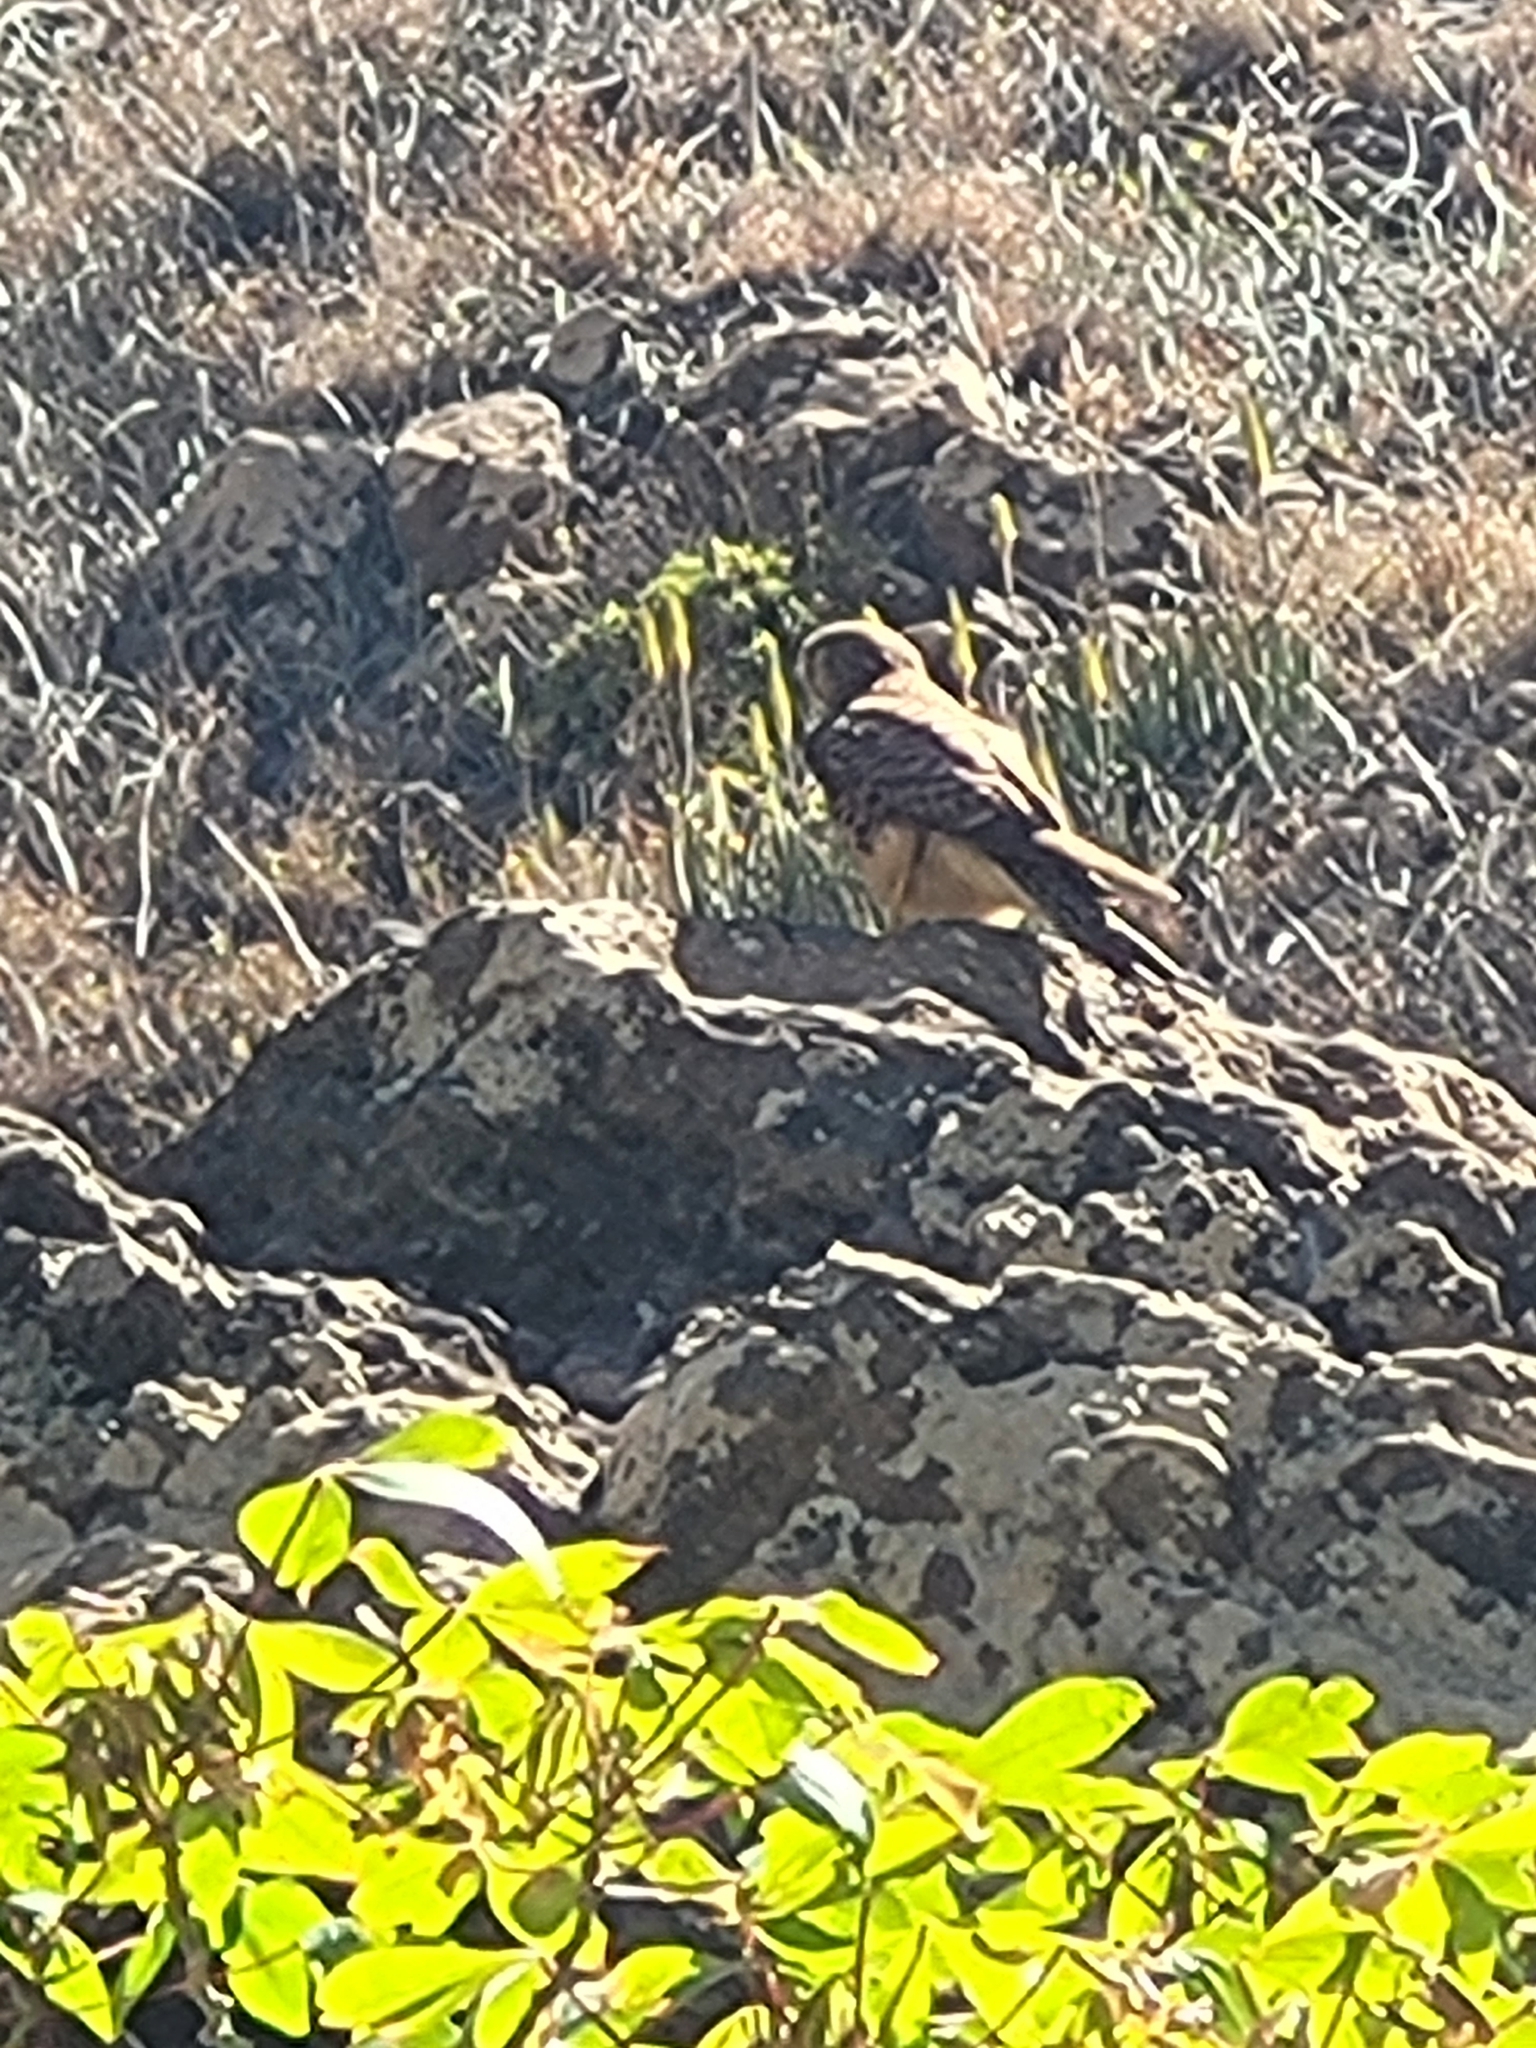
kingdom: Animalia
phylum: Chordata
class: Aves
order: Falconiformes
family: Falconidae
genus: Falco
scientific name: Falco tinnunculus
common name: Common kestrel
